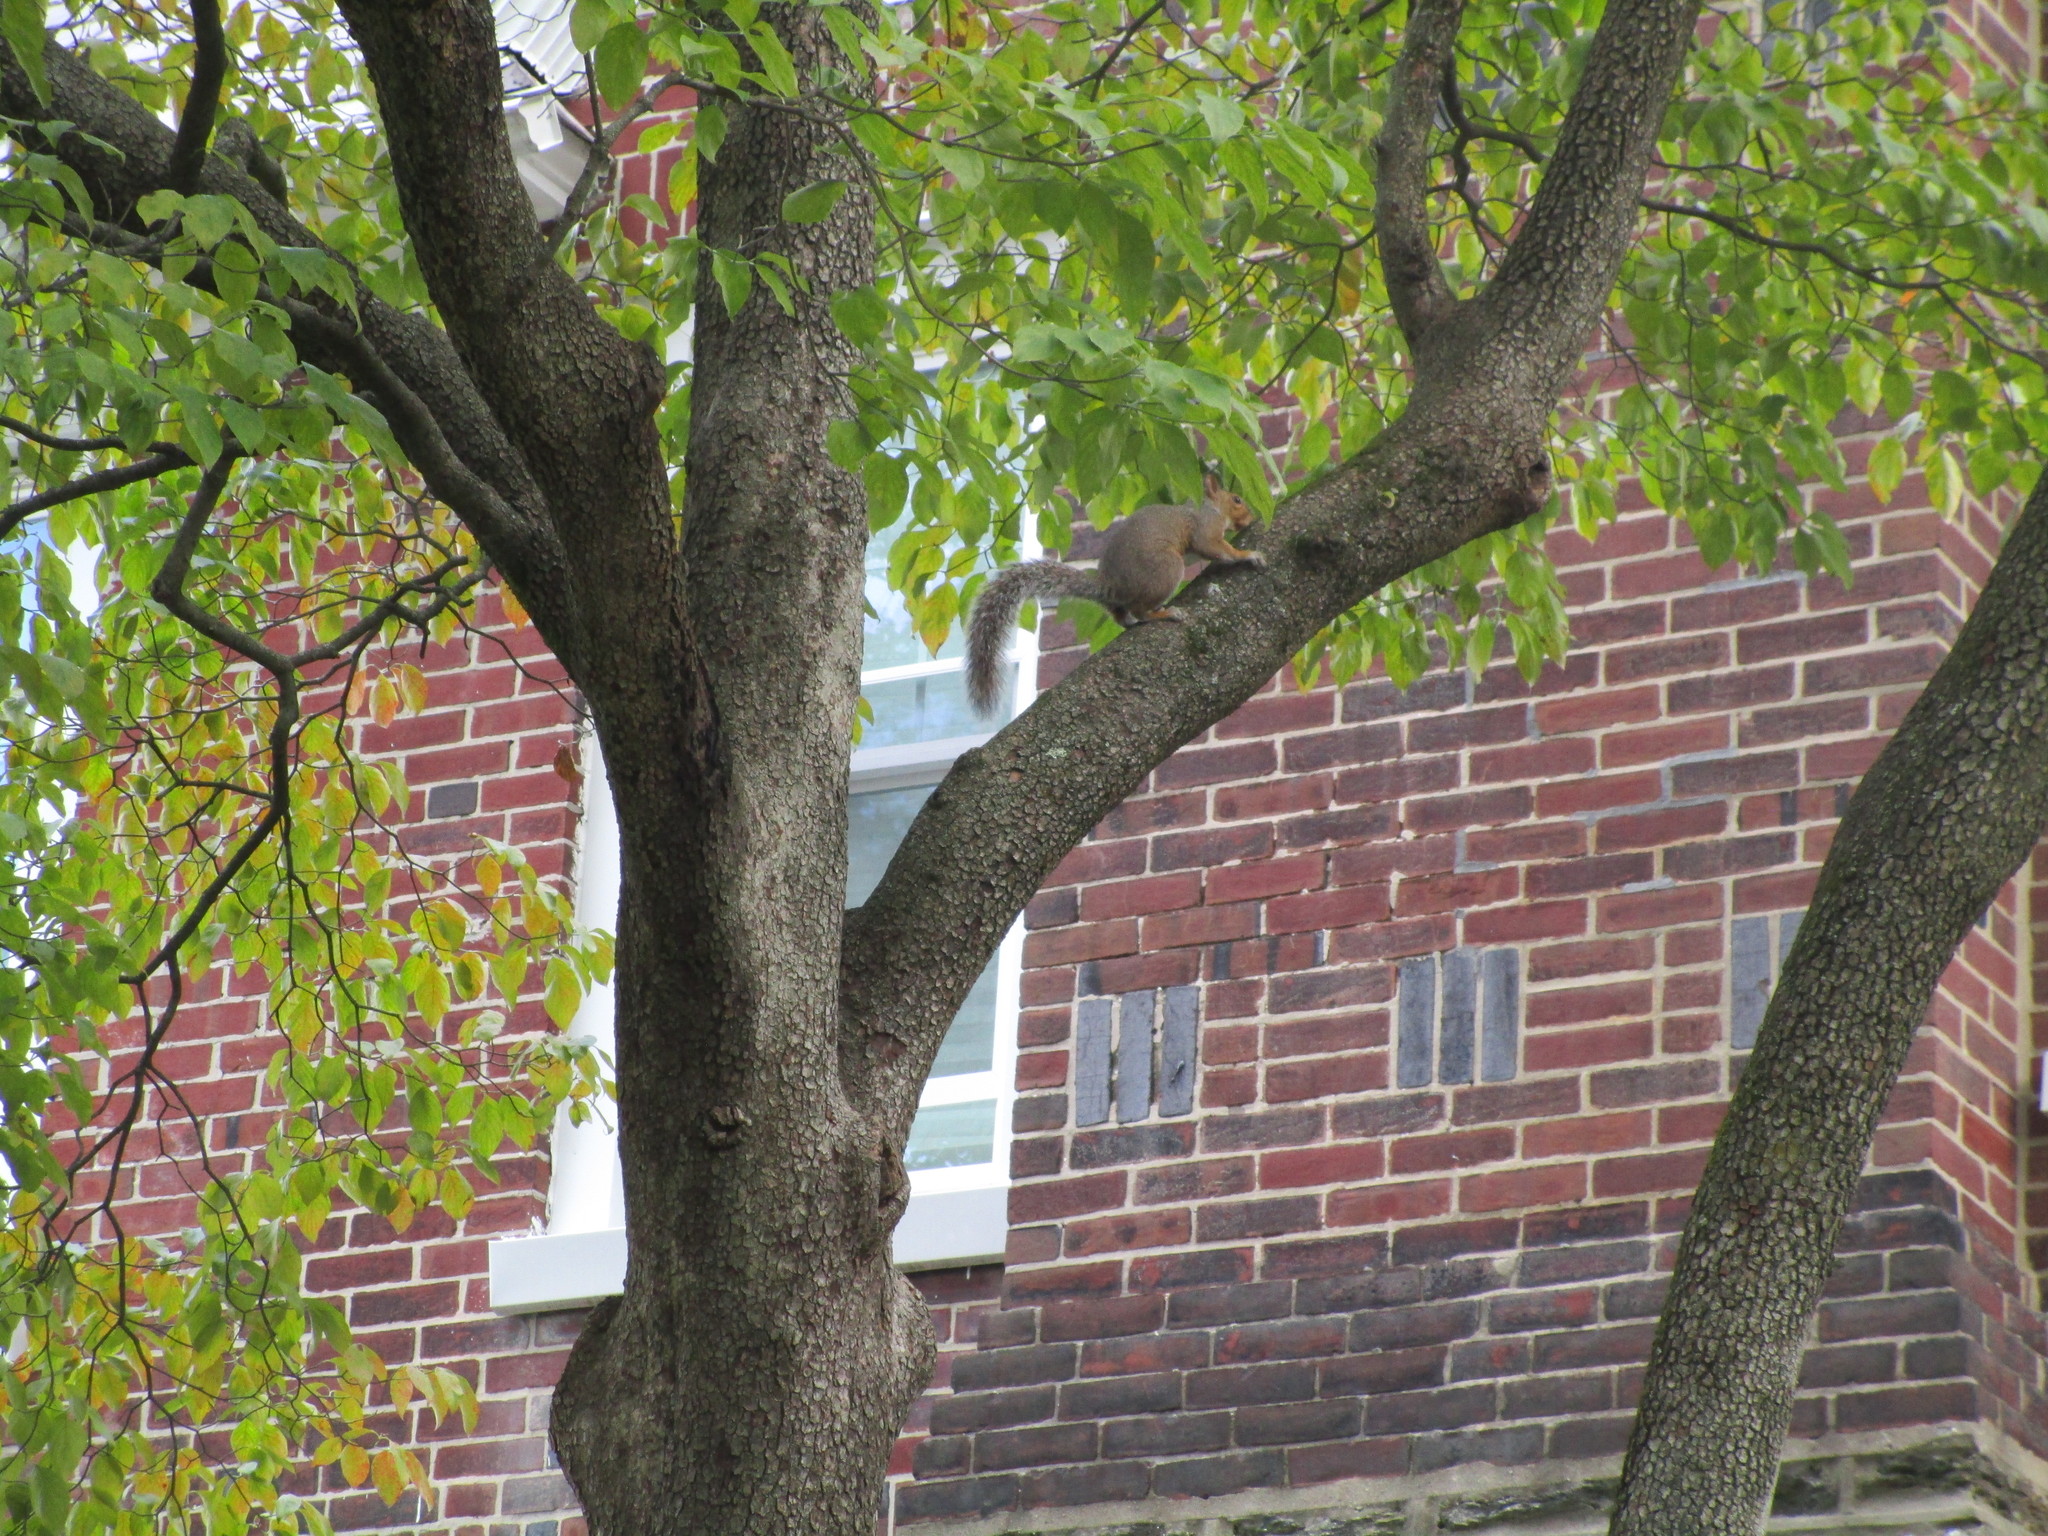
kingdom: Animalia
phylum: Chordata
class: Mammalia
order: Rodentia
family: Sciuridae
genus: Sciurus
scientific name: Sciurus carolinensis
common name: Eastern gray squirrel
